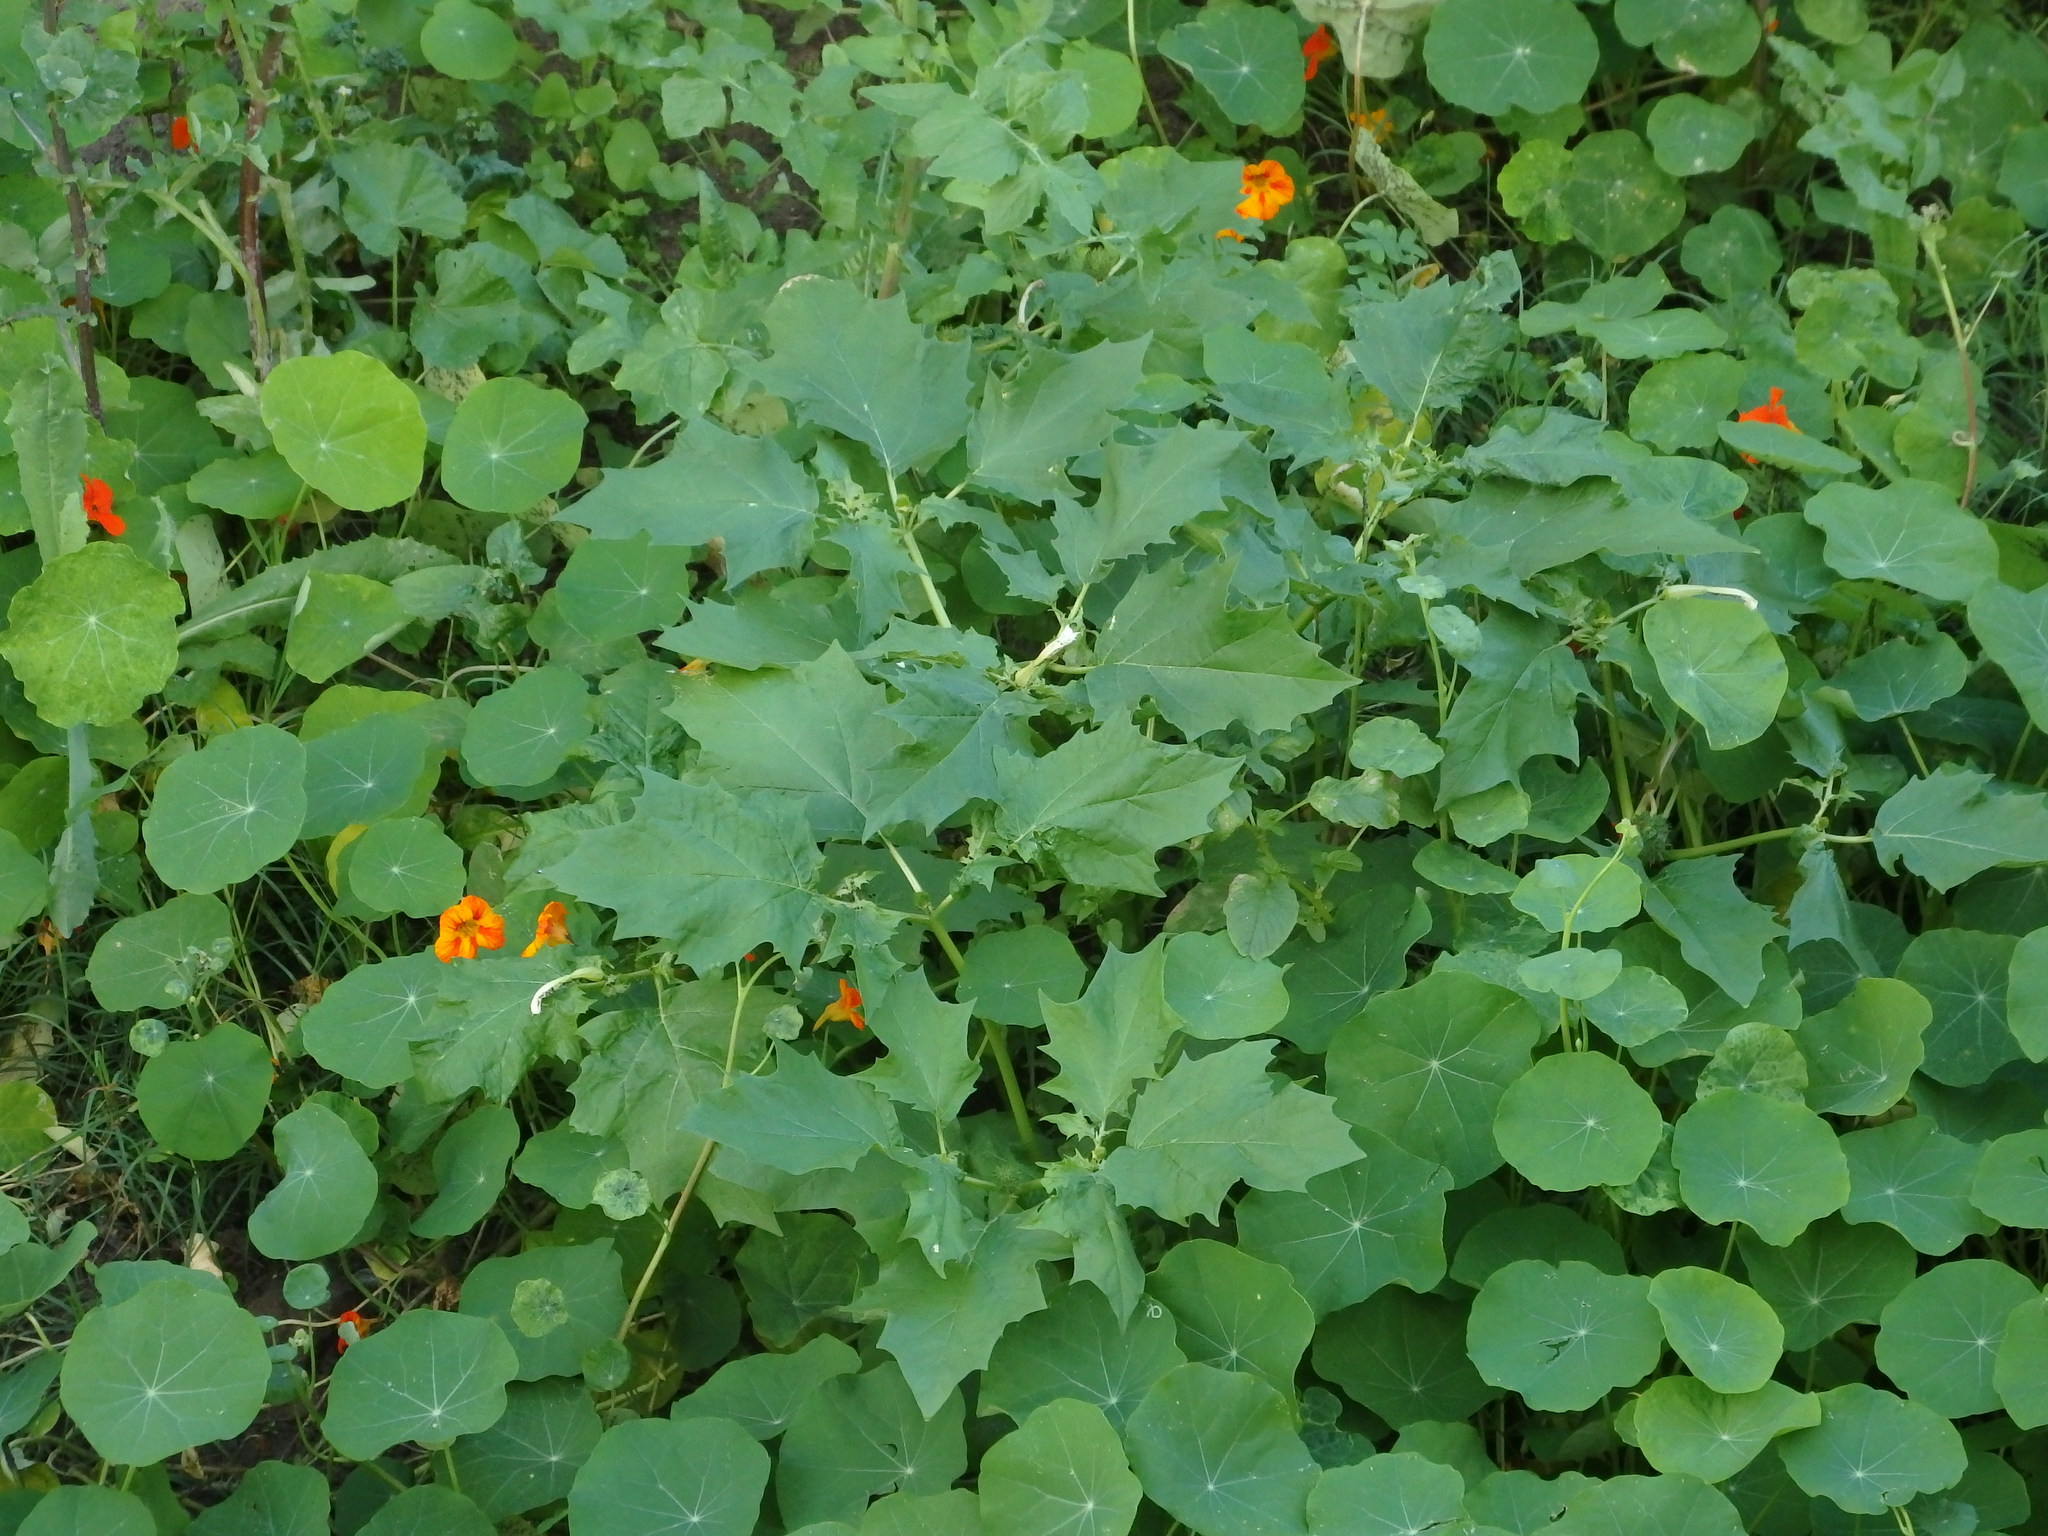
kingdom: Plantae
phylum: Tracheophyta
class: Magnoliopsida
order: Solanales
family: Solanaceae
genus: Datura
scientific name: Datura stramonium
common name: Thorn-apple
